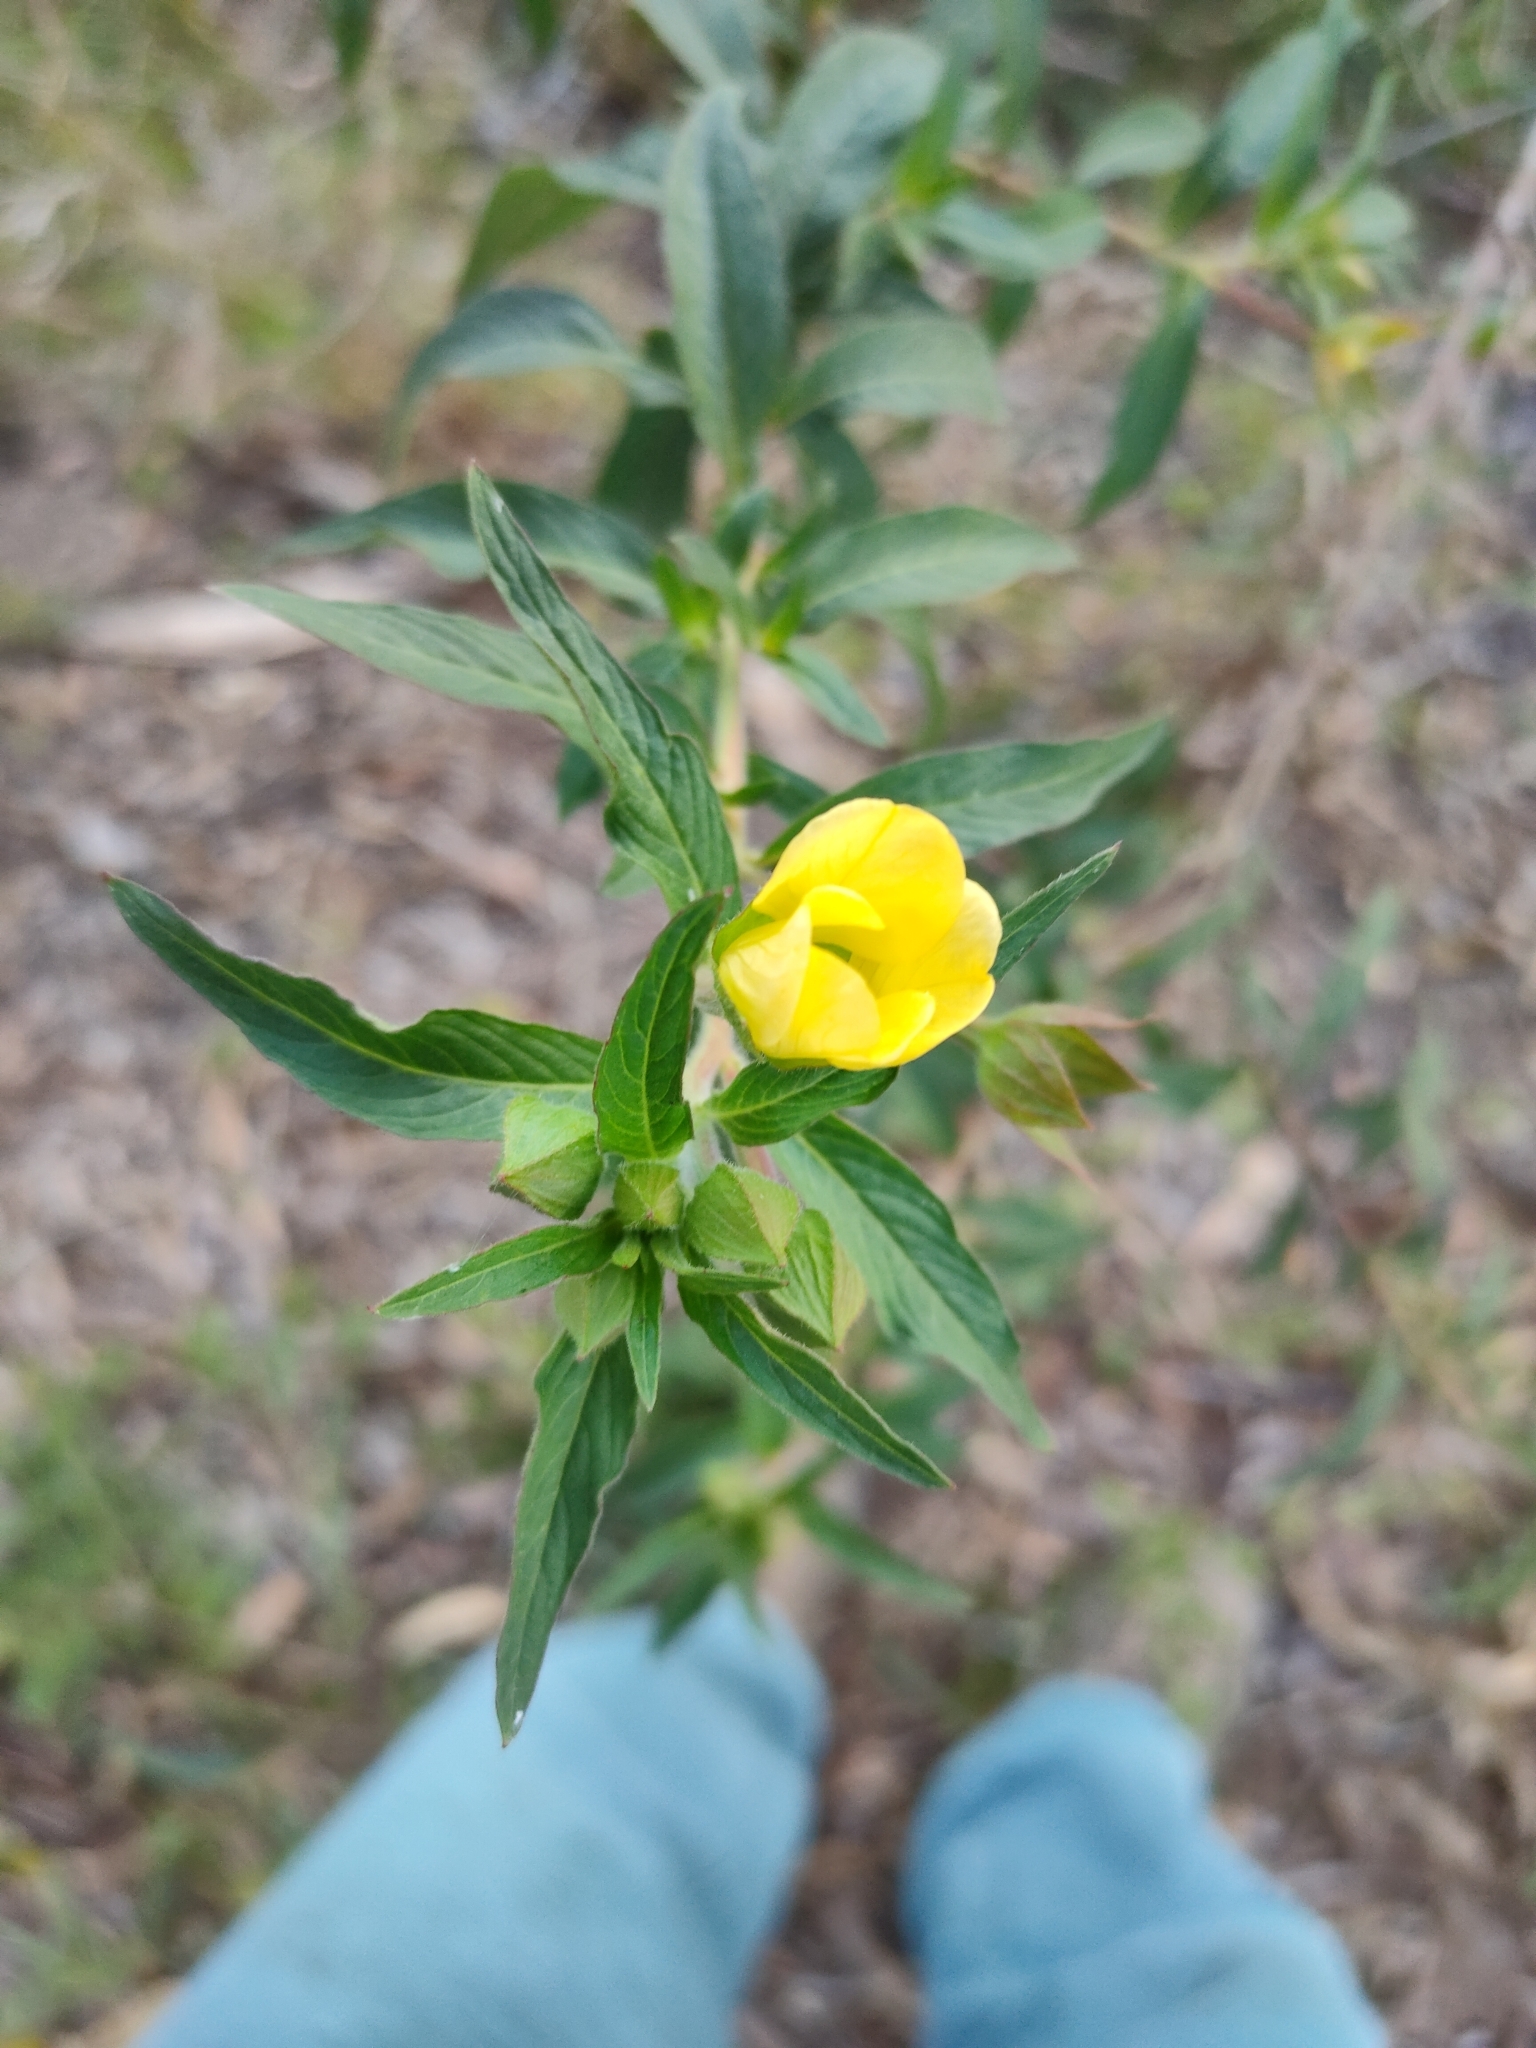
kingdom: Plantae
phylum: Tracheophyta
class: Magnoliopsida
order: Myrtales
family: Onagraceae
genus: Ludwigia
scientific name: Ludwigia octovalvis
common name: Water-primrose
